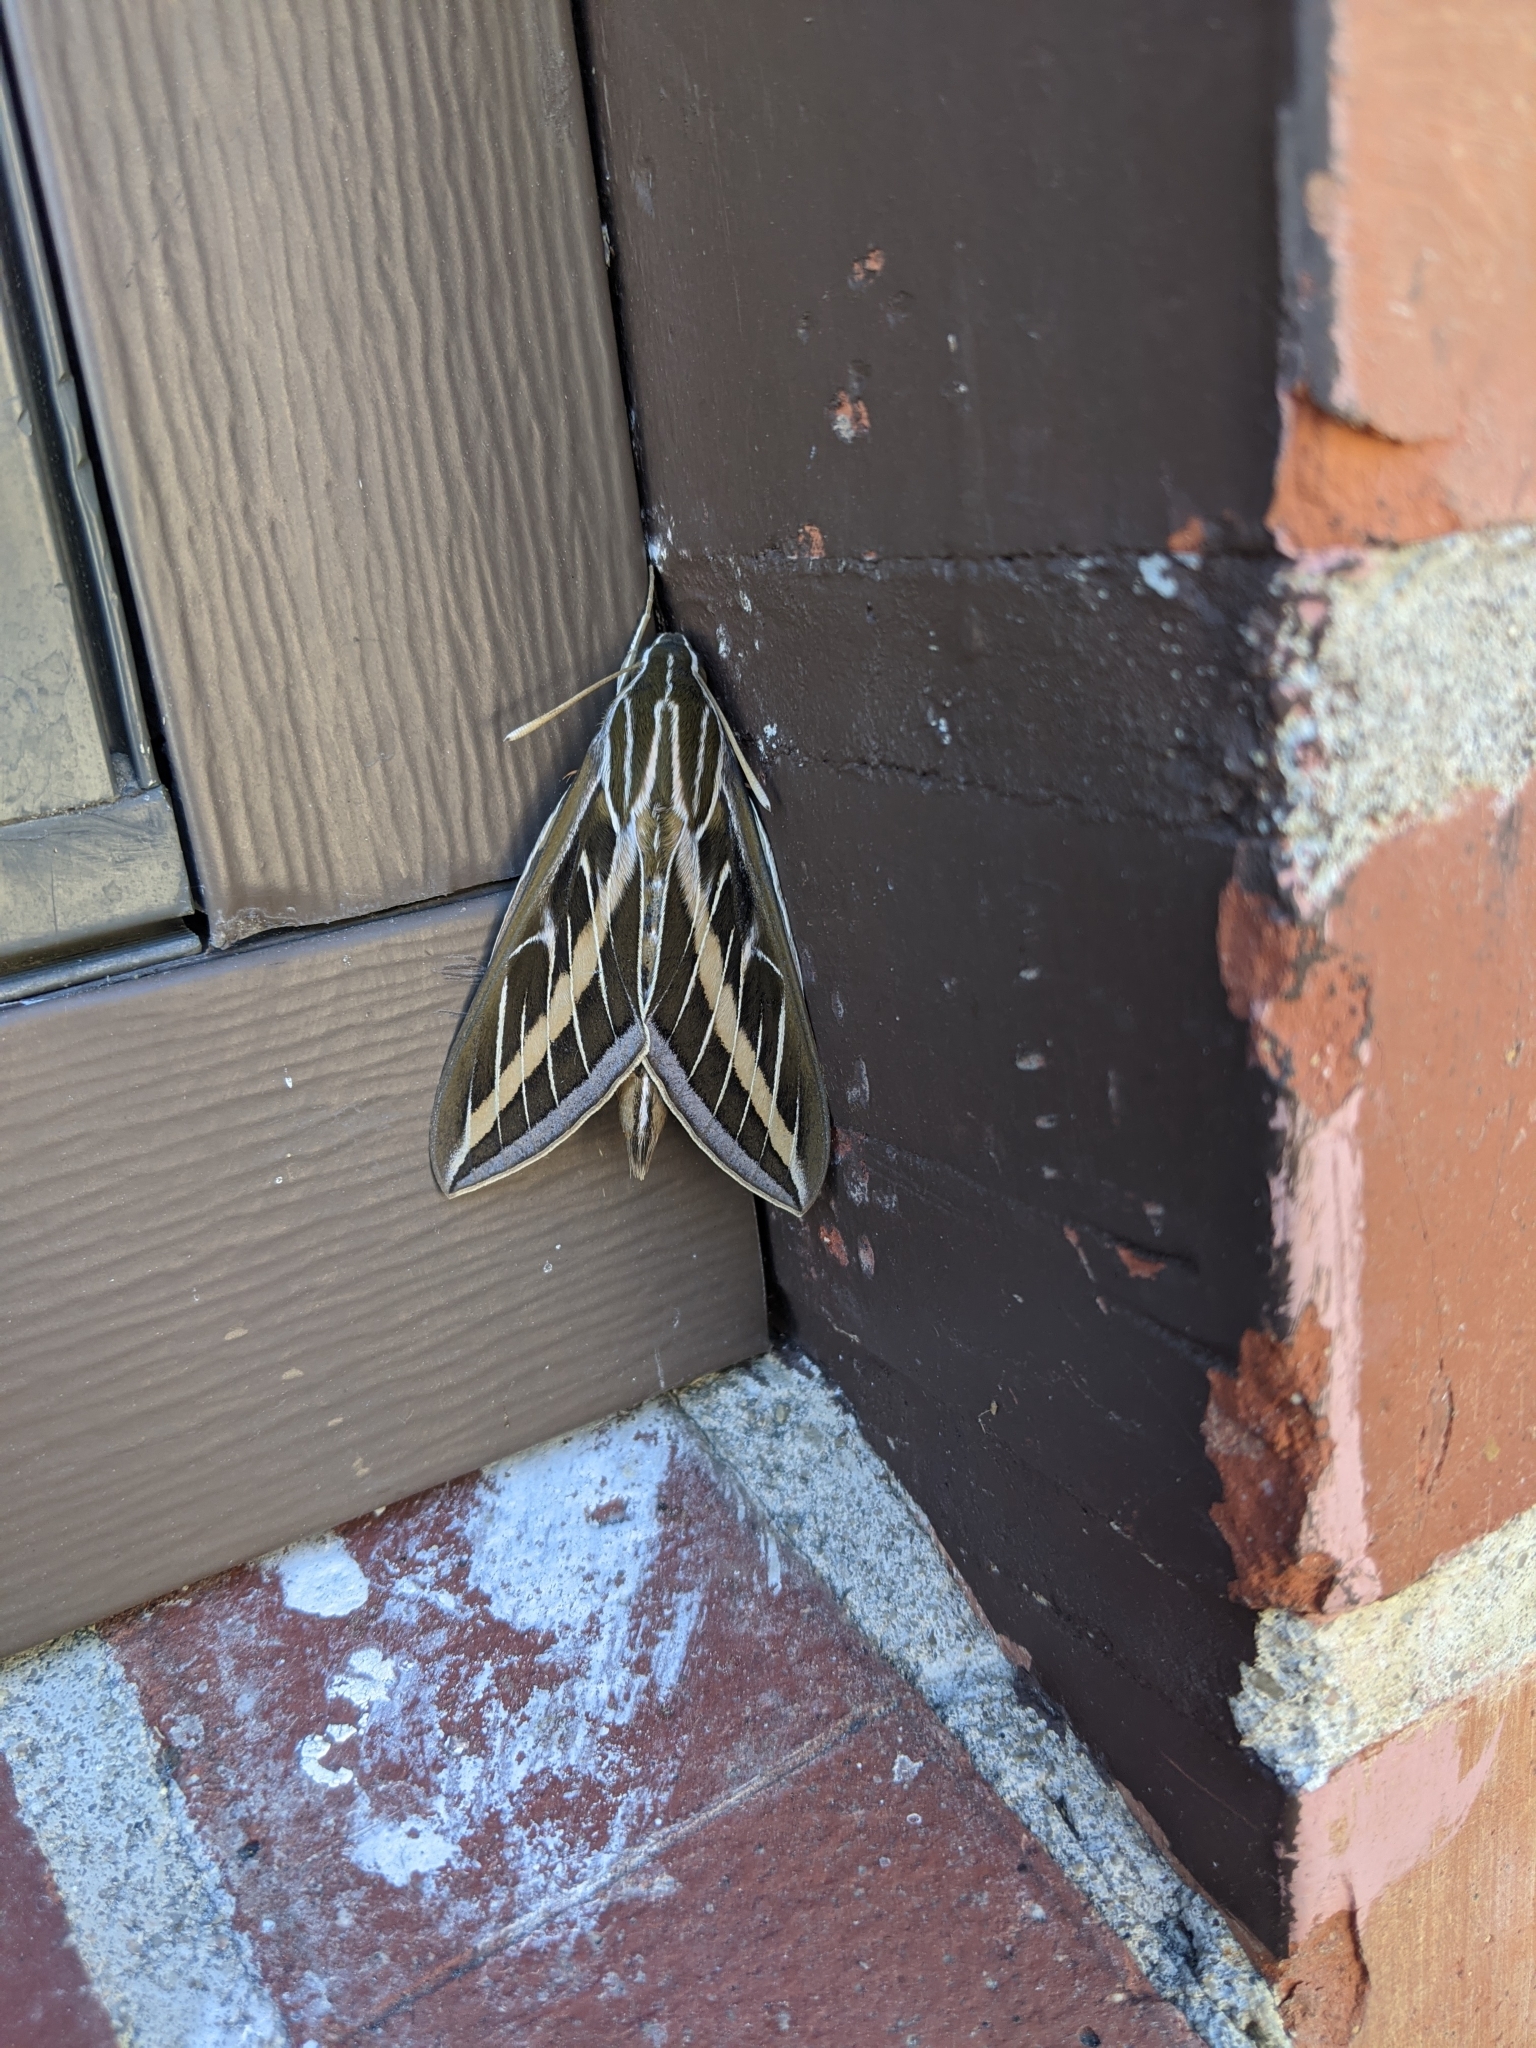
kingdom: Animalia
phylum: Arthropoda
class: Insecta
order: Lepidoptera
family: Sphingidae
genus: Hyles
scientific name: Hyles lineata
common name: White-lined sphinx
